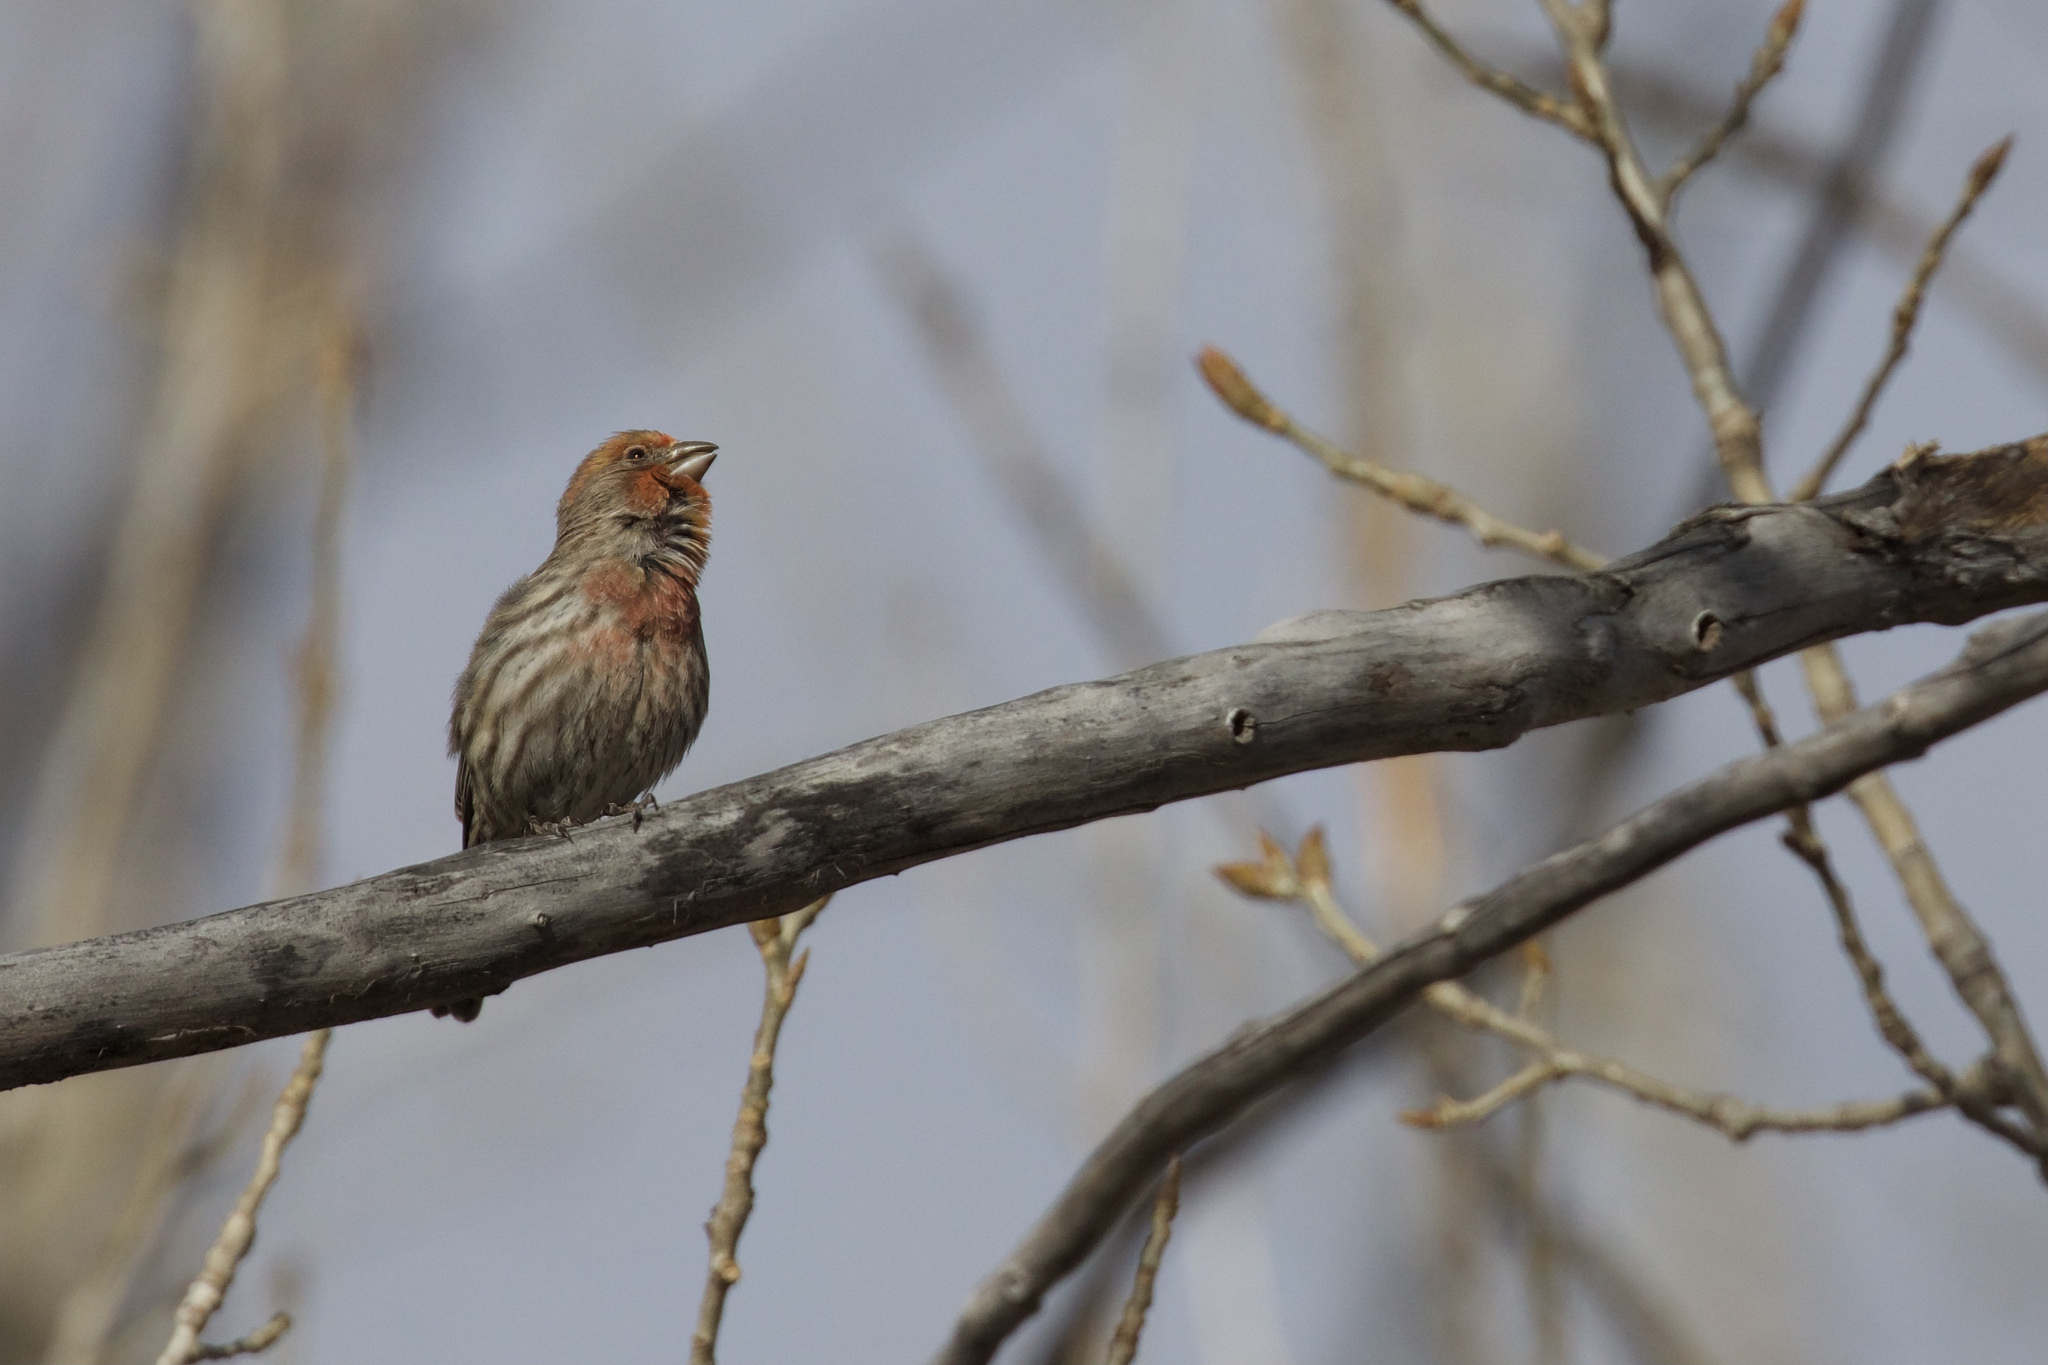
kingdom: Animalia
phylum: Chordata
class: Aves
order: Passeriformes
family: Fringillidae
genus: Haemorhous
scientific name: Haemorhous mexicanus
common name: House finch
